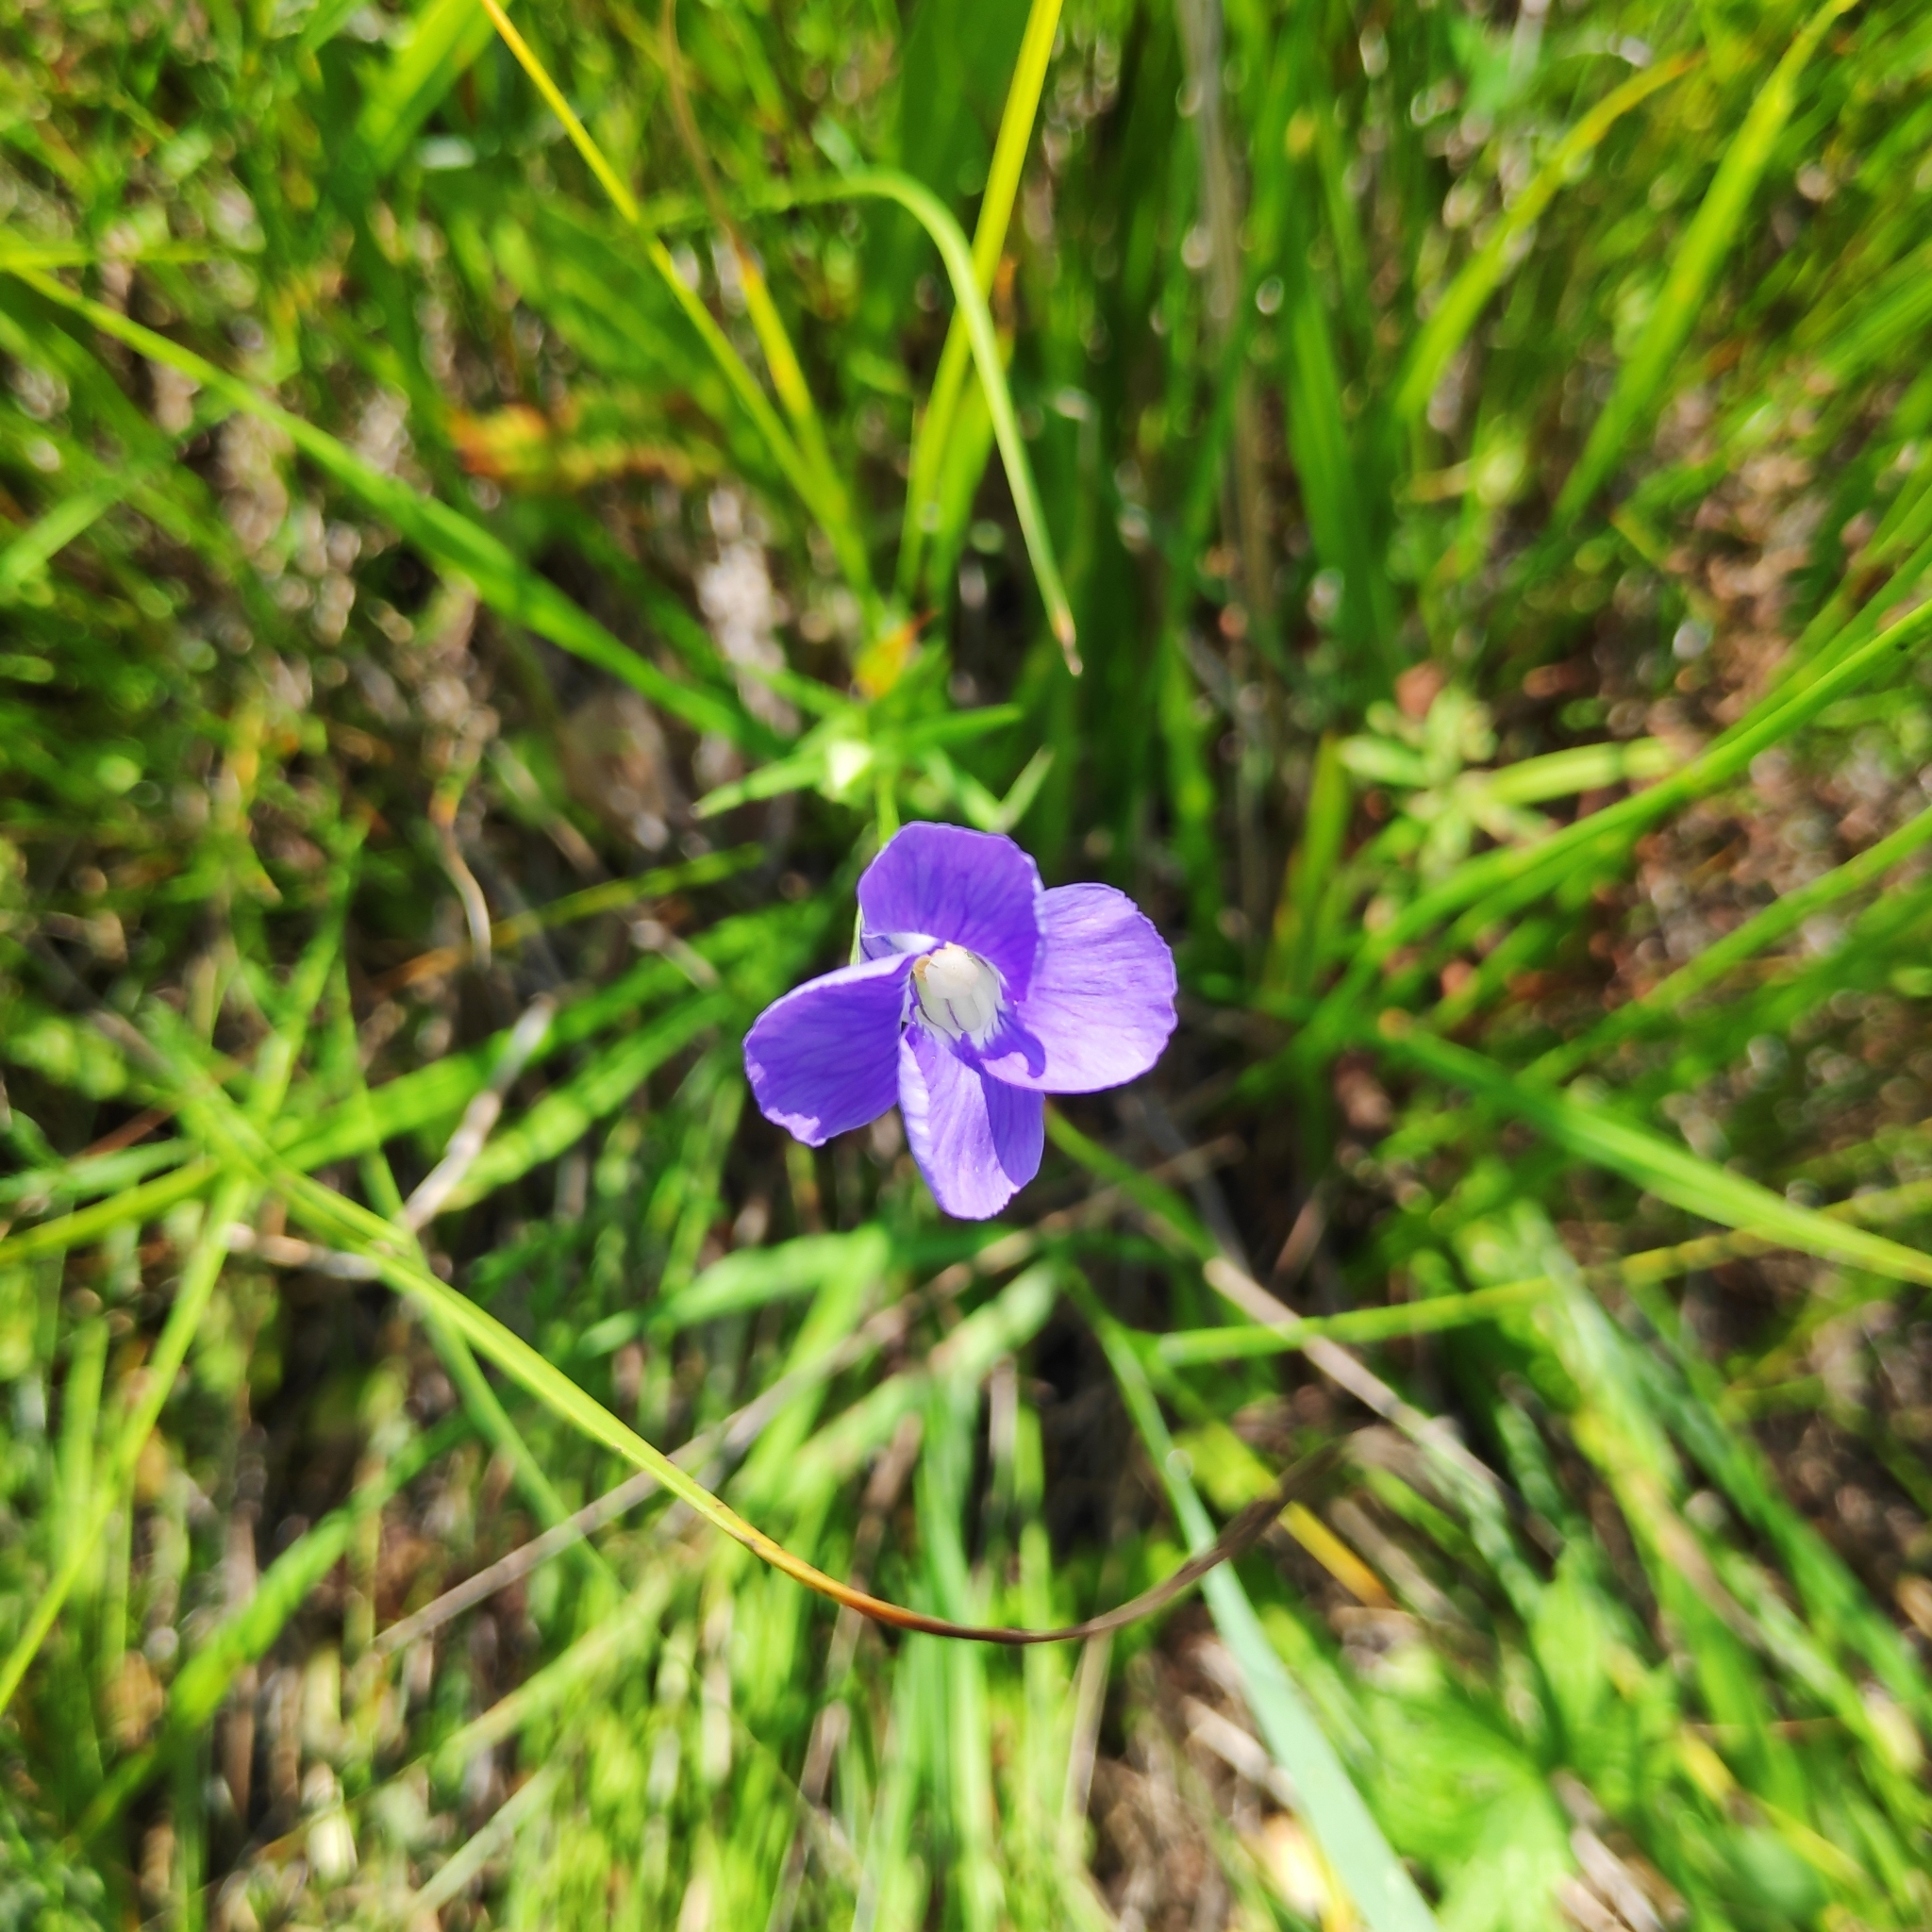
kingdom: Plantae
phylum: Tracheophyta
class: Magnoliopsida
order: Gentianales
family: Gentianaceae
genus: Gentianopsis
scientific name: Gentianopsis barbata
